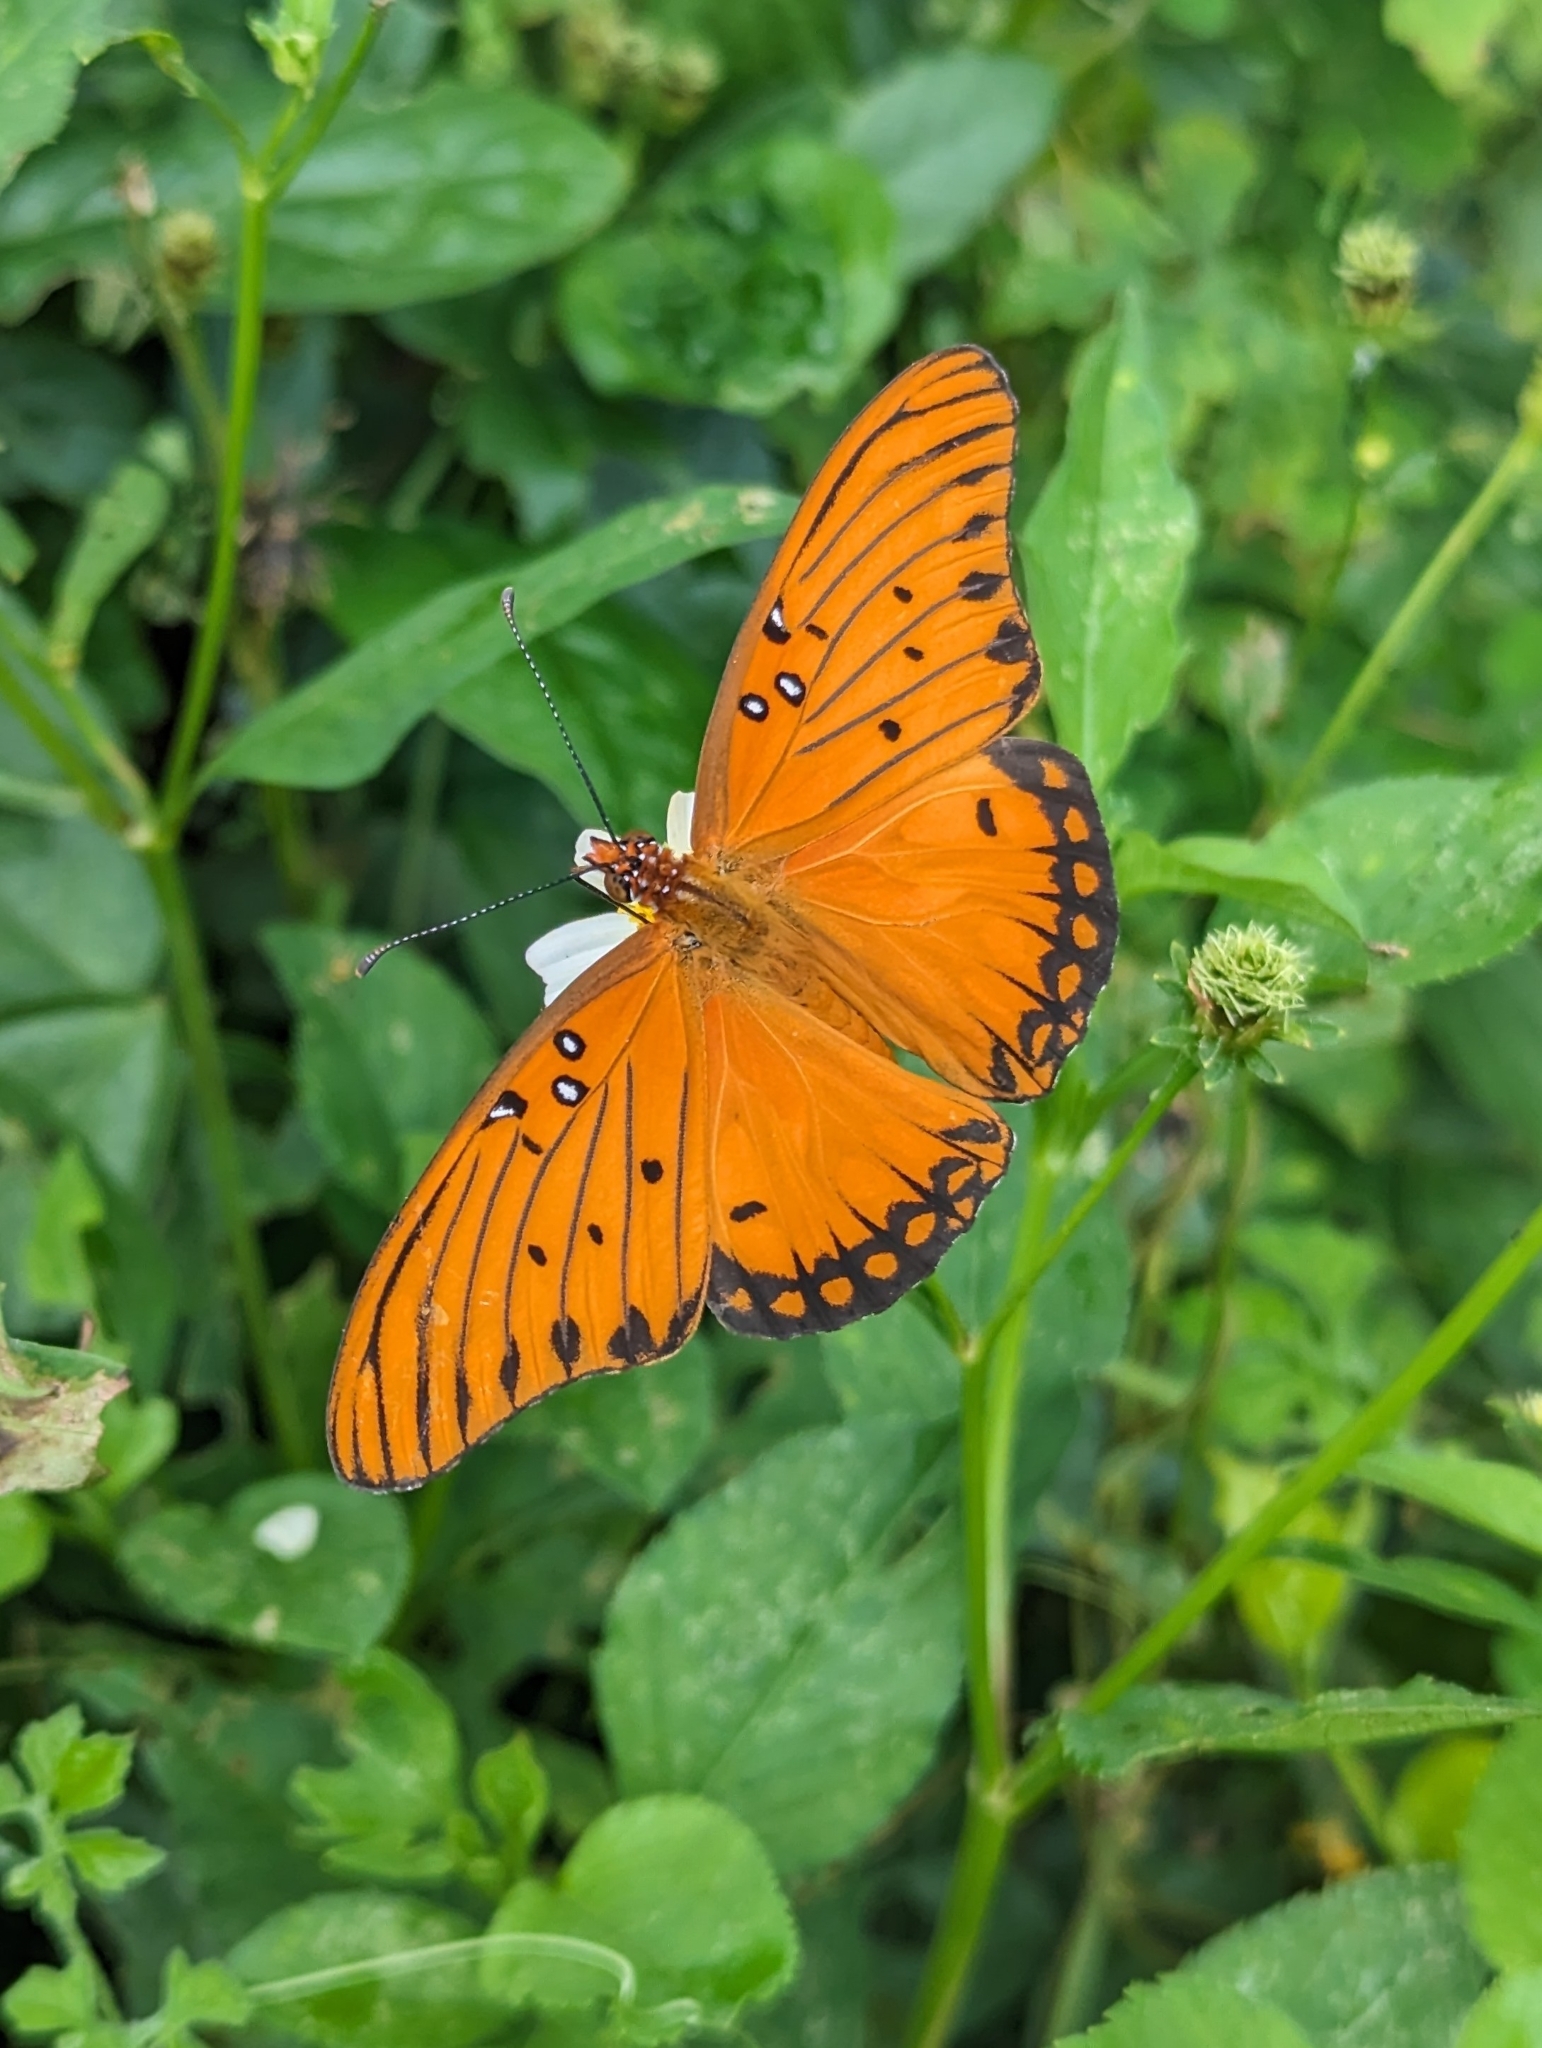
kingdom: Animalia
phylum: Arthropoda
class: Insecta
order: Lepidoptera
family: Nymphalidae
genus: Dione
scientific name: Dione vanillae
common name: Gulf fritillary
